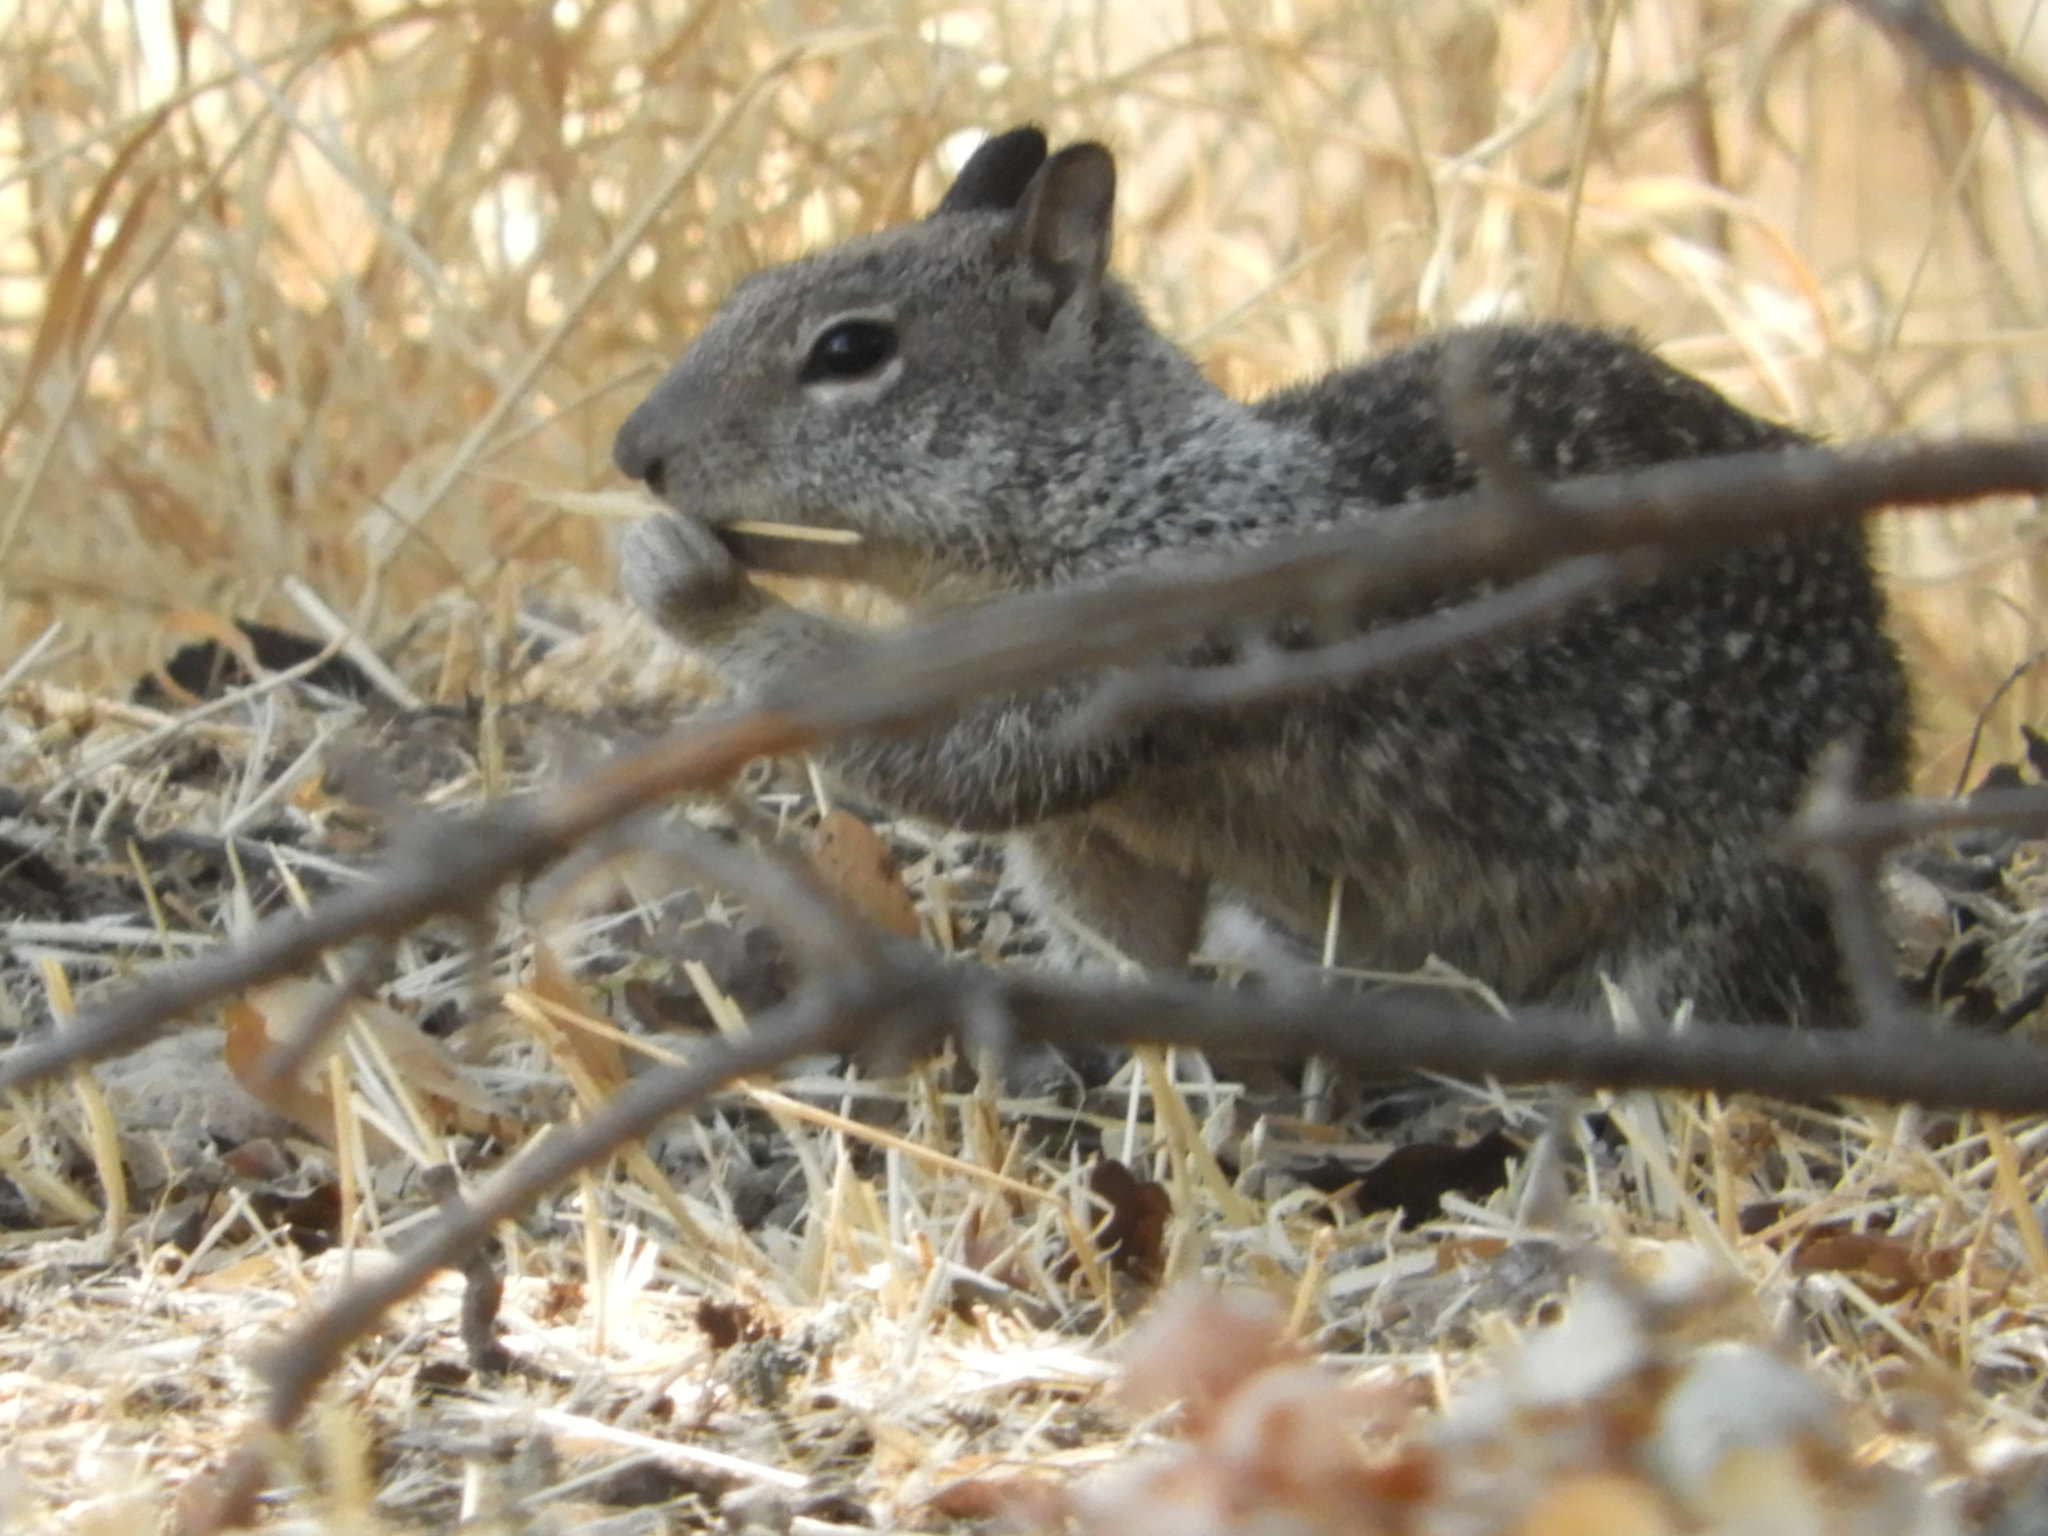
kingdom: Animalia
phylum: Chordata
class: Mammalia
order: Rodentia
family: Sciuridae
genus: Otospermophilus
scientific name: Otospermophilus beecheyi
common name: California ground squirrel
